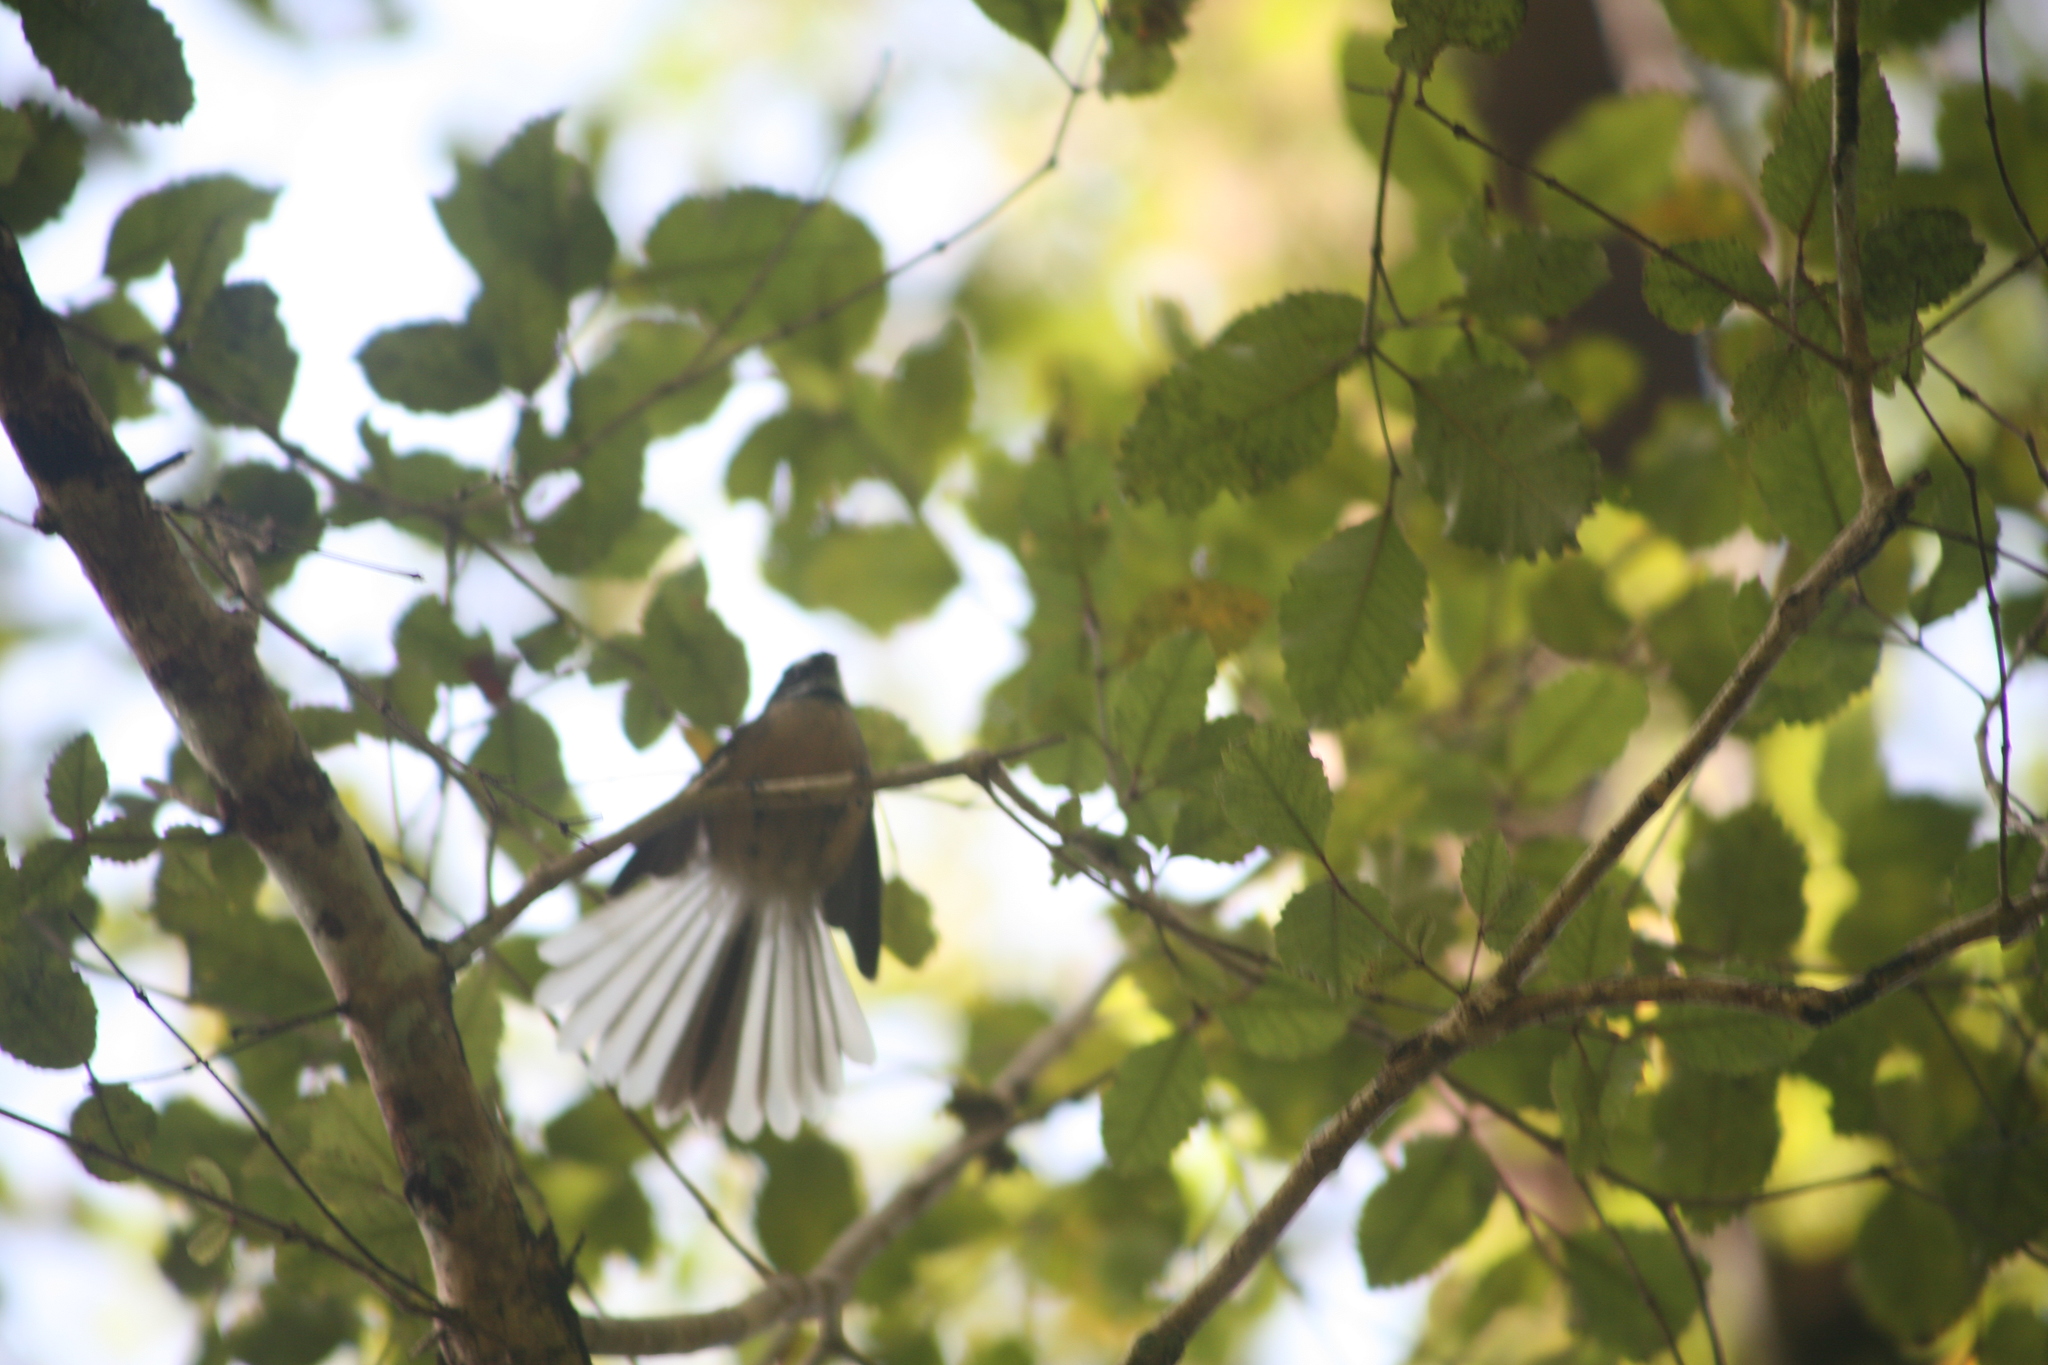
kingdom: Animalia
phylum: Chordata
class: Aves
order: Passeriformes
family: Rhipiduridae
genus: Rhipidura
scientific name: Rhipidura fuliginosa
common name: New zealand fantail
